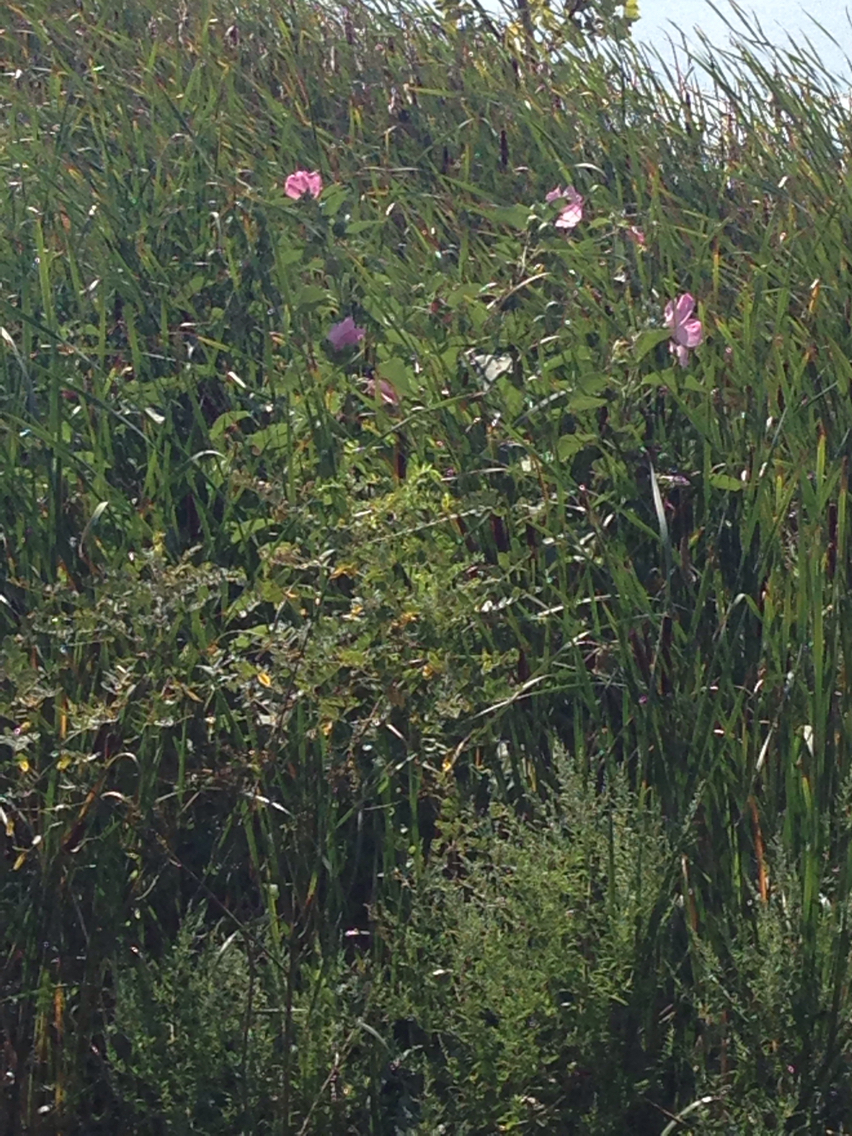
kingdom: Plantae
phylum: Tracheophyta
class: Magnoliopsida
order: Malvales
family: Malvaceae
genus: Hibiscus
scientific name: Hibiscus moscheutos
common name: Common rose-mallow
